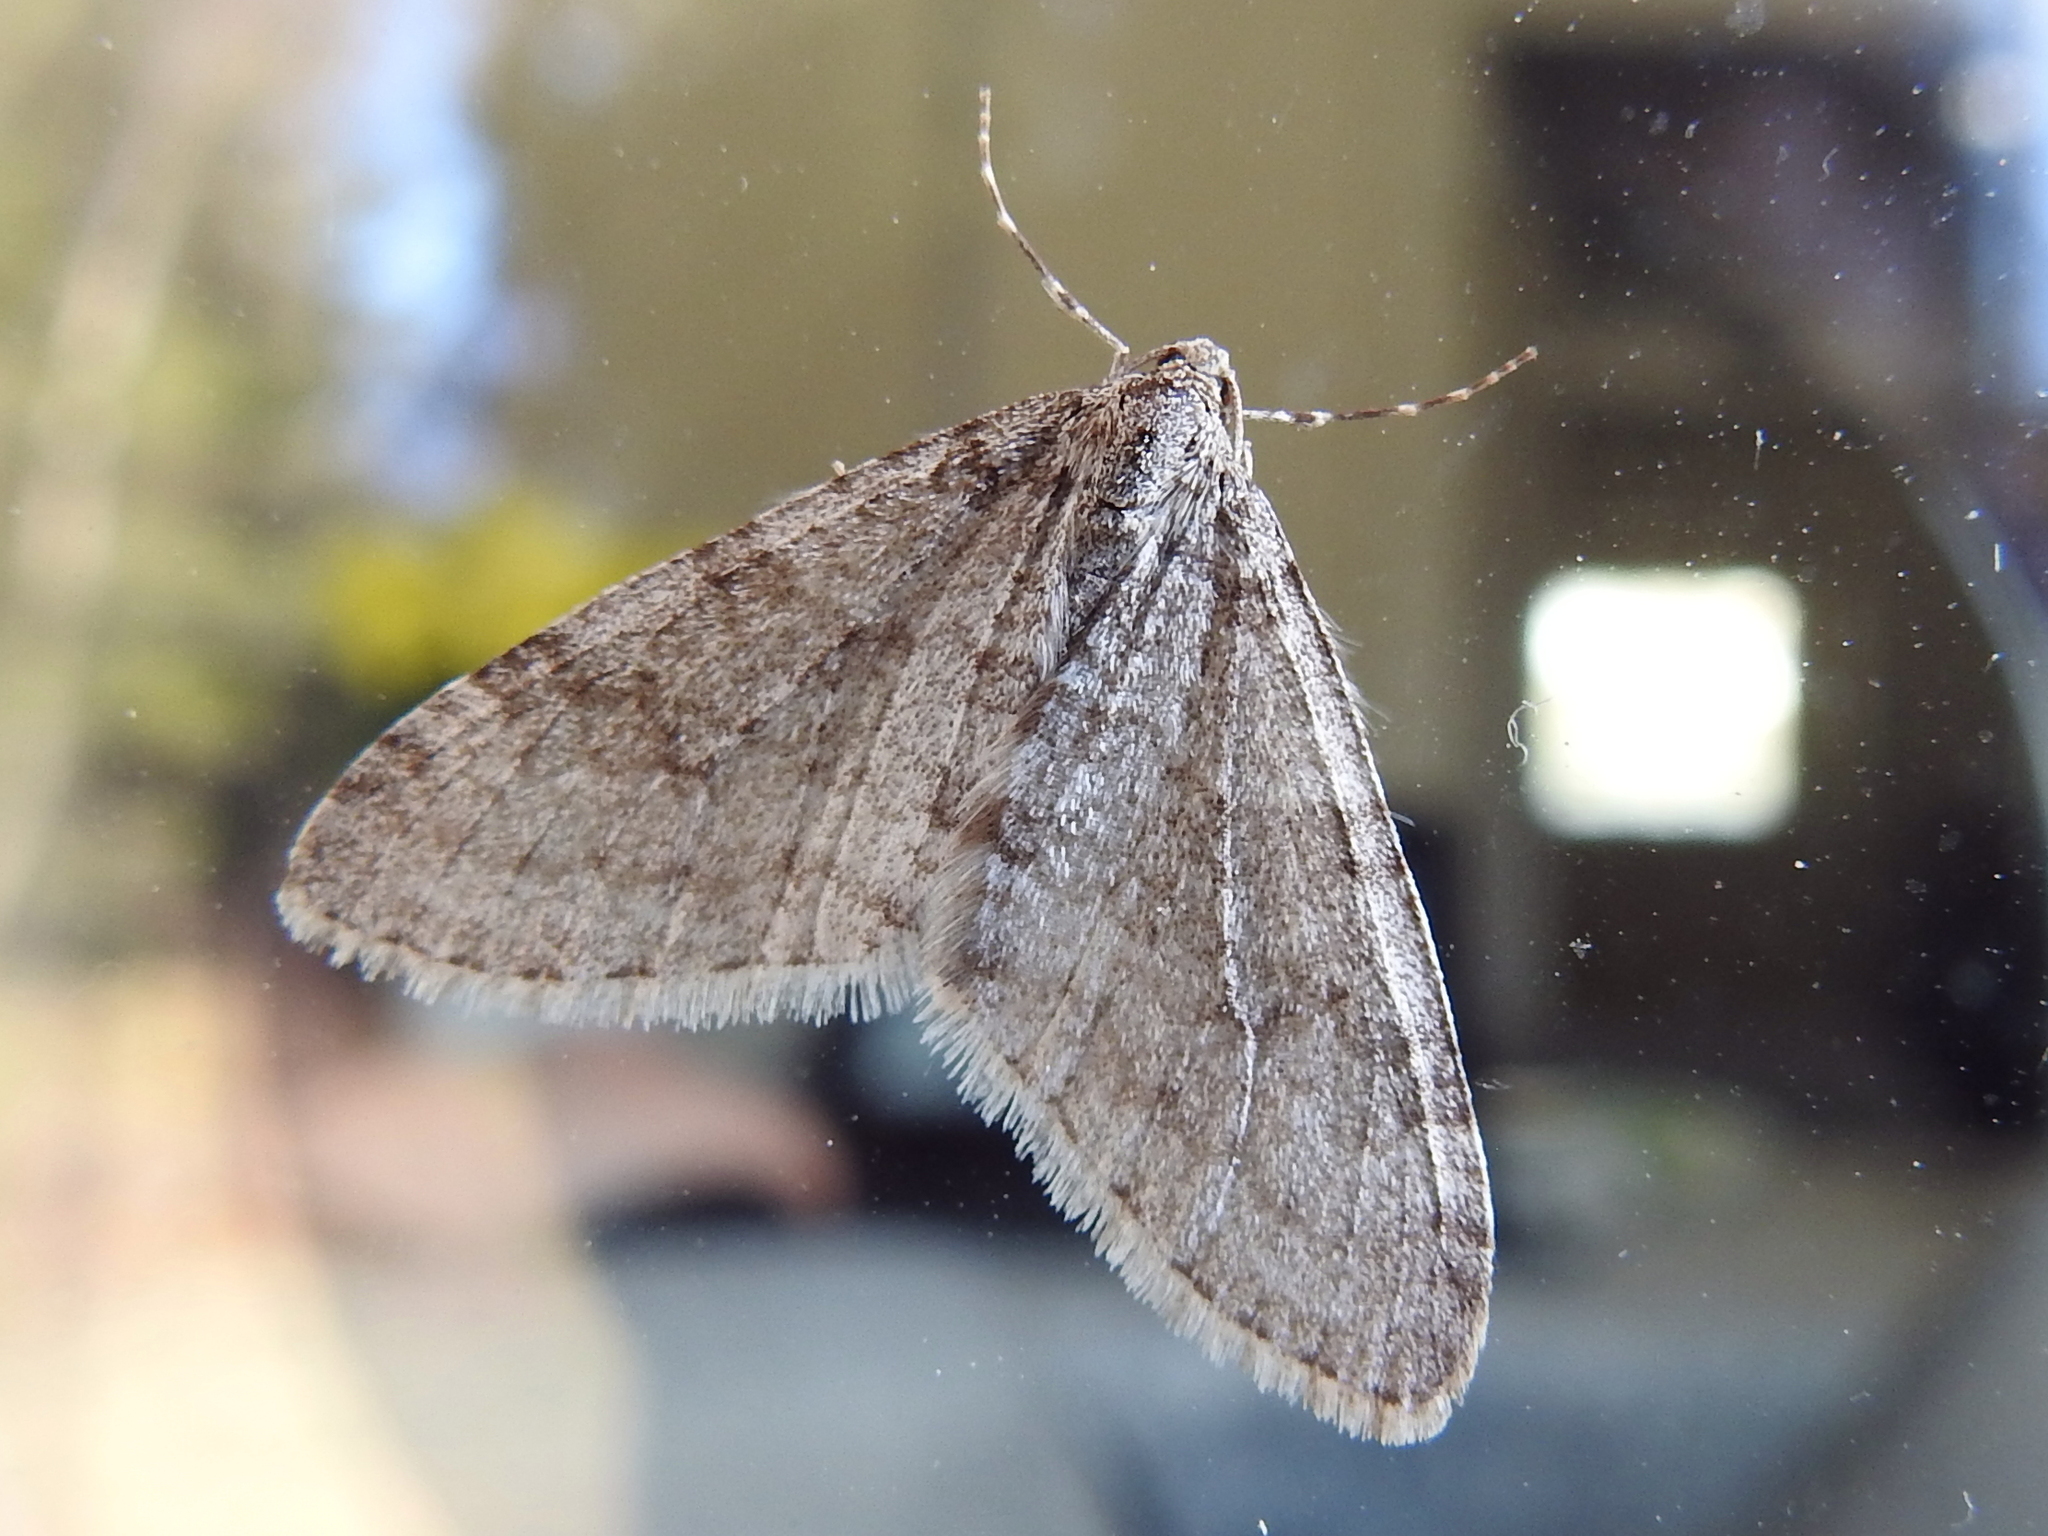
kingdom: Animalia
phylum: Arthropoda
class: Insecta
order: Lepidoptera
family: Geometridae
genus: Trichopteryx
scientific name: Trichopteryx carpinata
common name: Early tooth-striped
